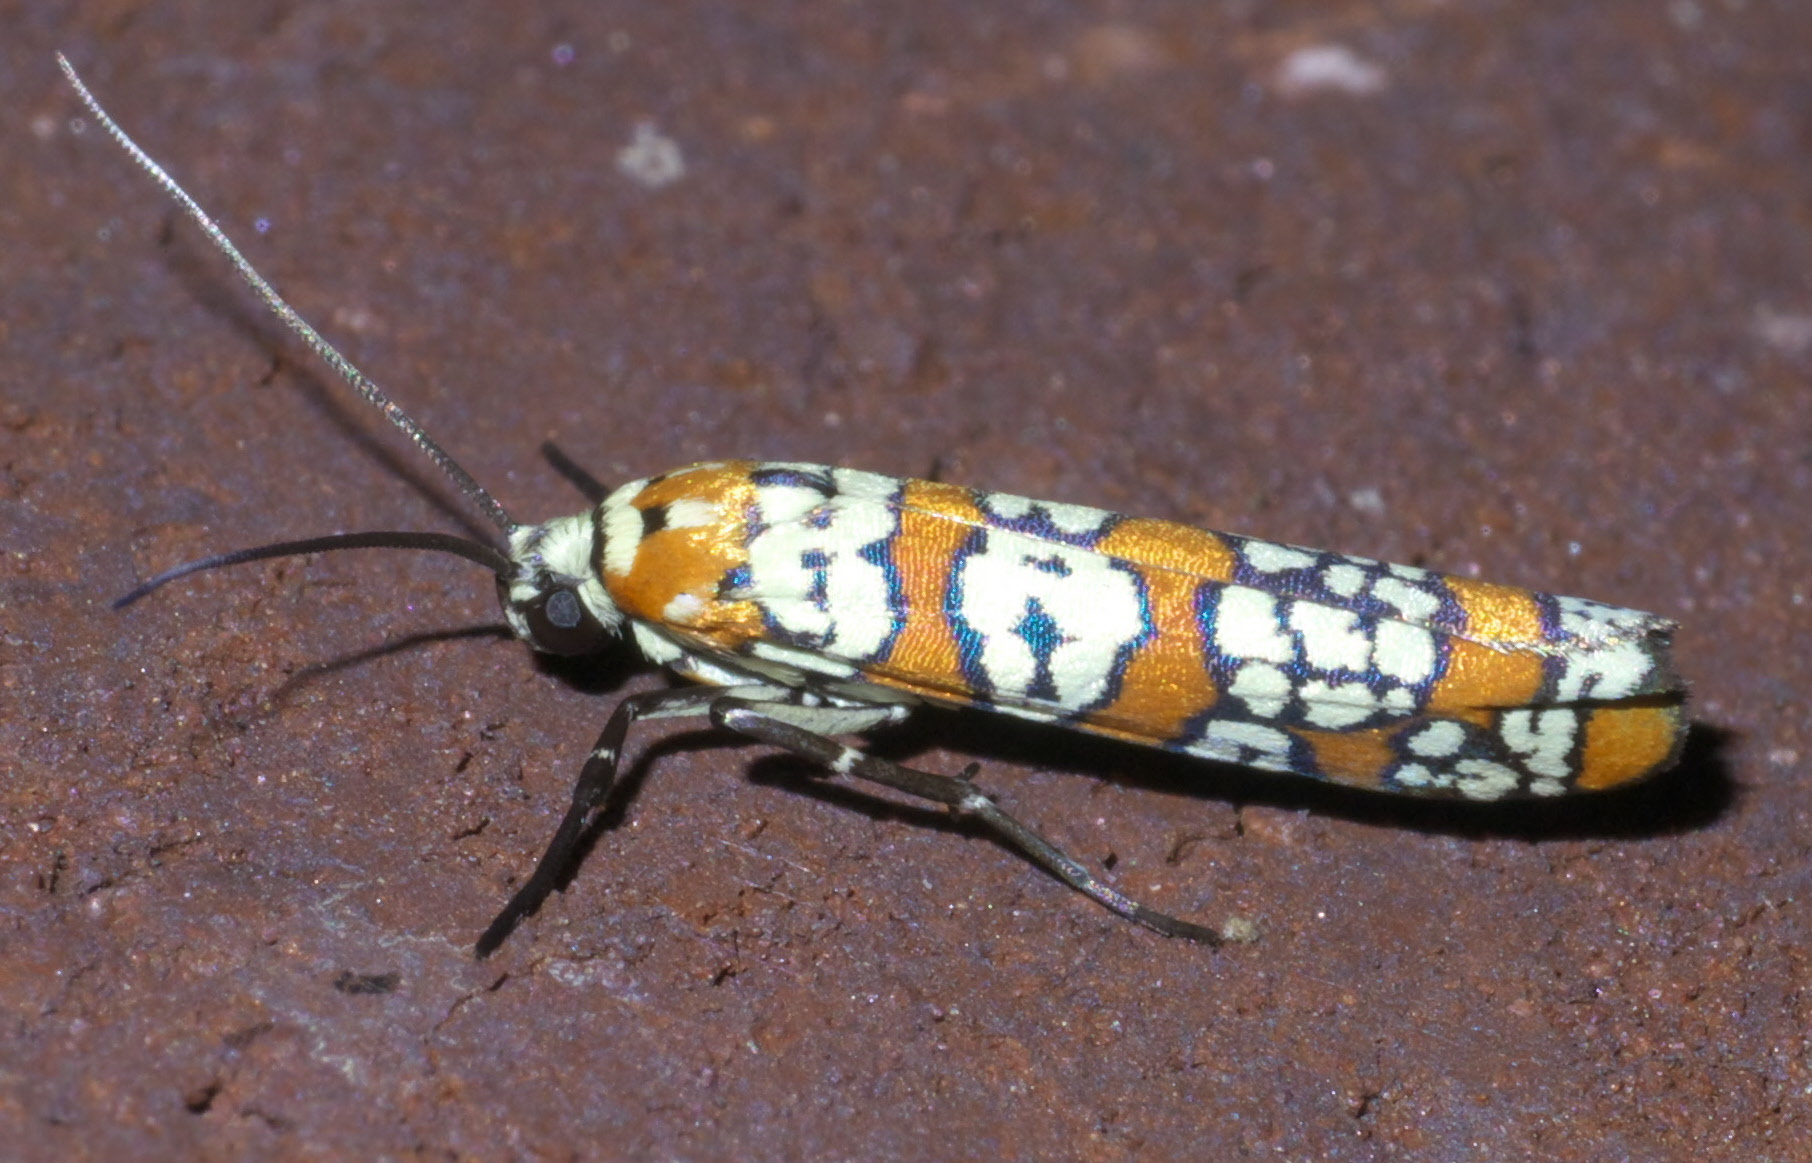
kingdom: Animalia
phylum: Arthropoda
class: Insecta
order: Lepidoptera
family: Attevidae
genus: Atteva
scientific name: Atteva punctella
